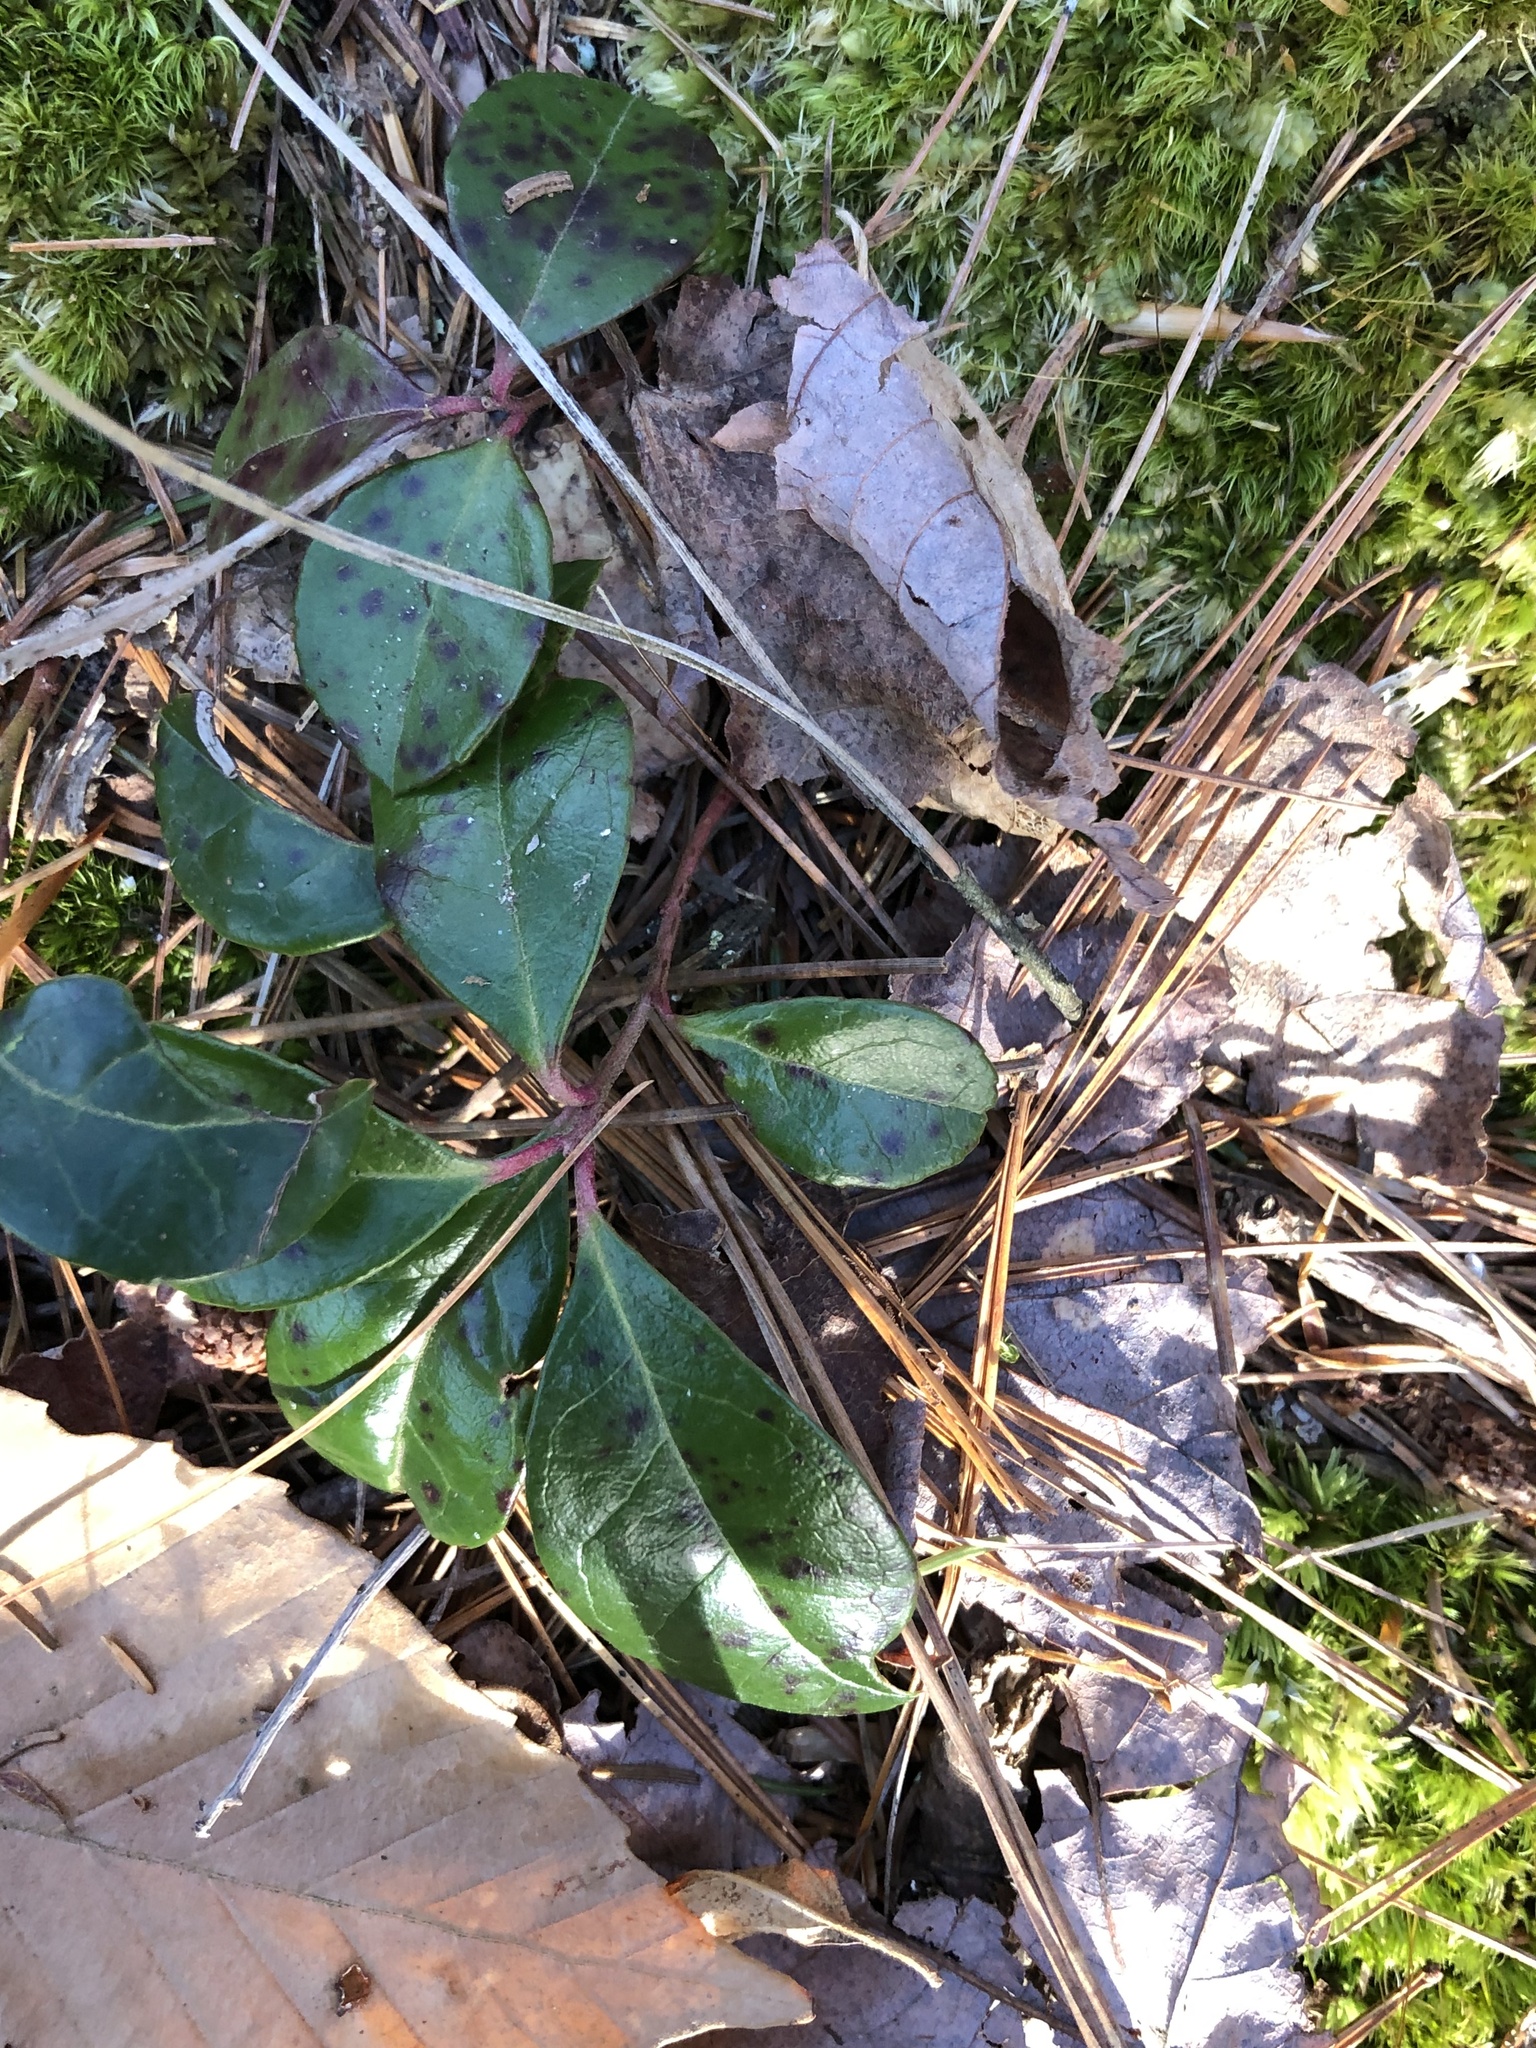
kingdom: Plantae
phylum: Tracheophyta
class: Magnoliopsida
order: Ericales
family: Ericaceae
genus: Gaultheria
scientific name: Gaultheria procumbens
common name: Checkerberry
